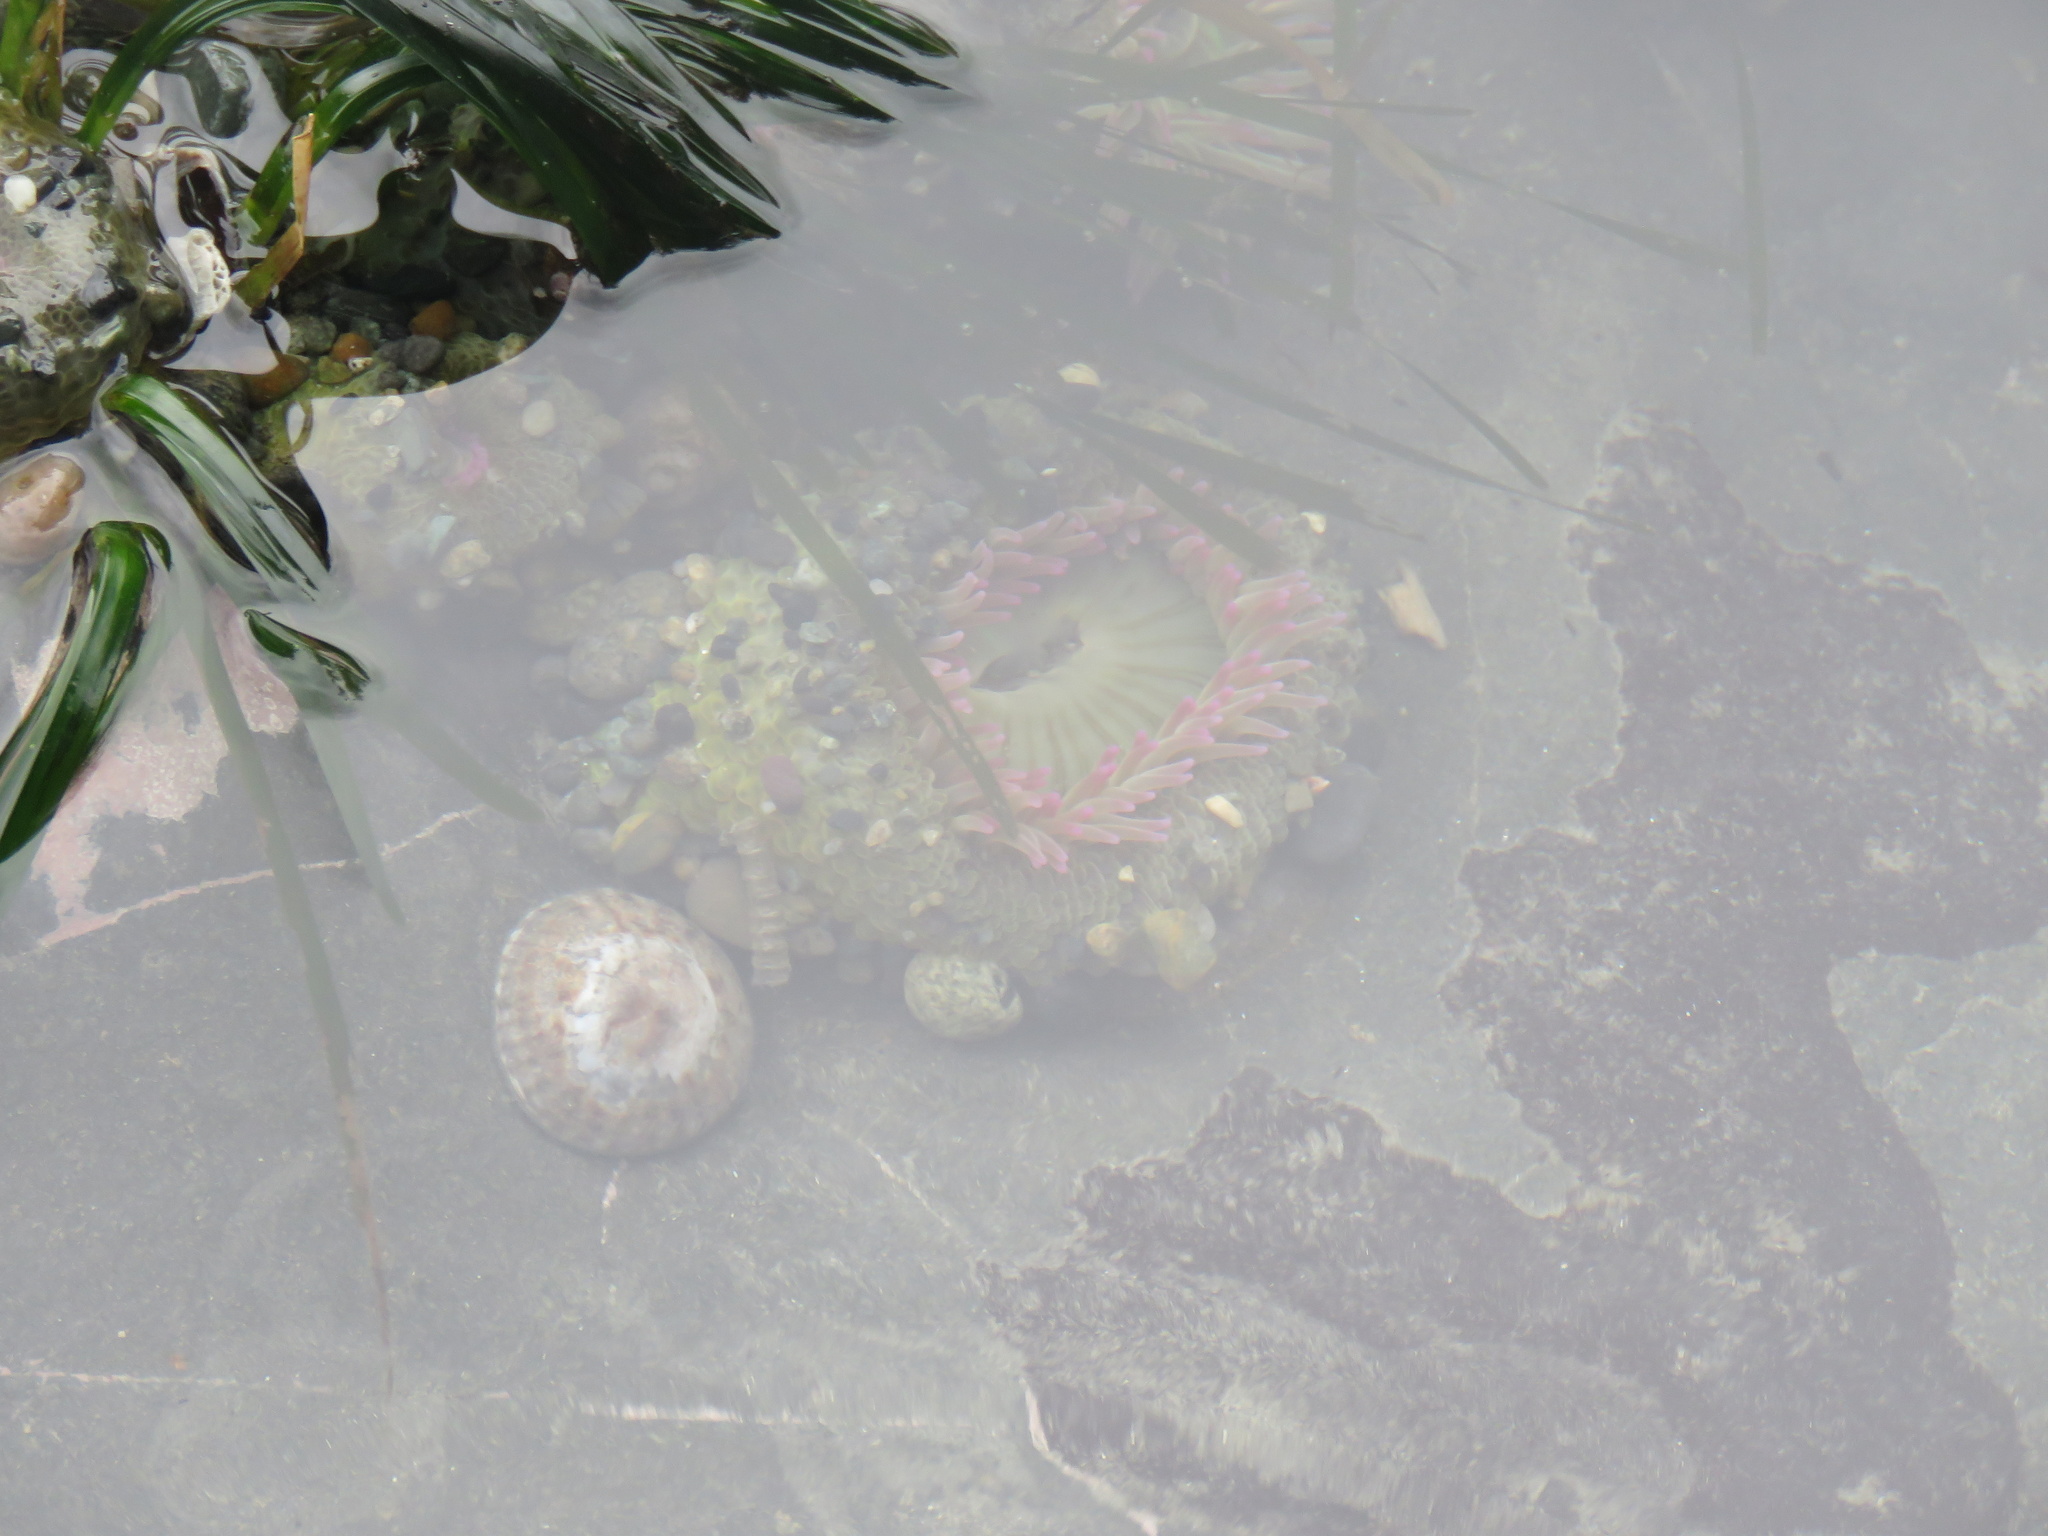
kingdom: Animalia
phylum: Cnidaria
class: Anthozoa
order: Actiniaria
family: Actiniidae
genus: Anthopleura
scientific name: Anthopleura elegantissima
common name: Clonal anemone
